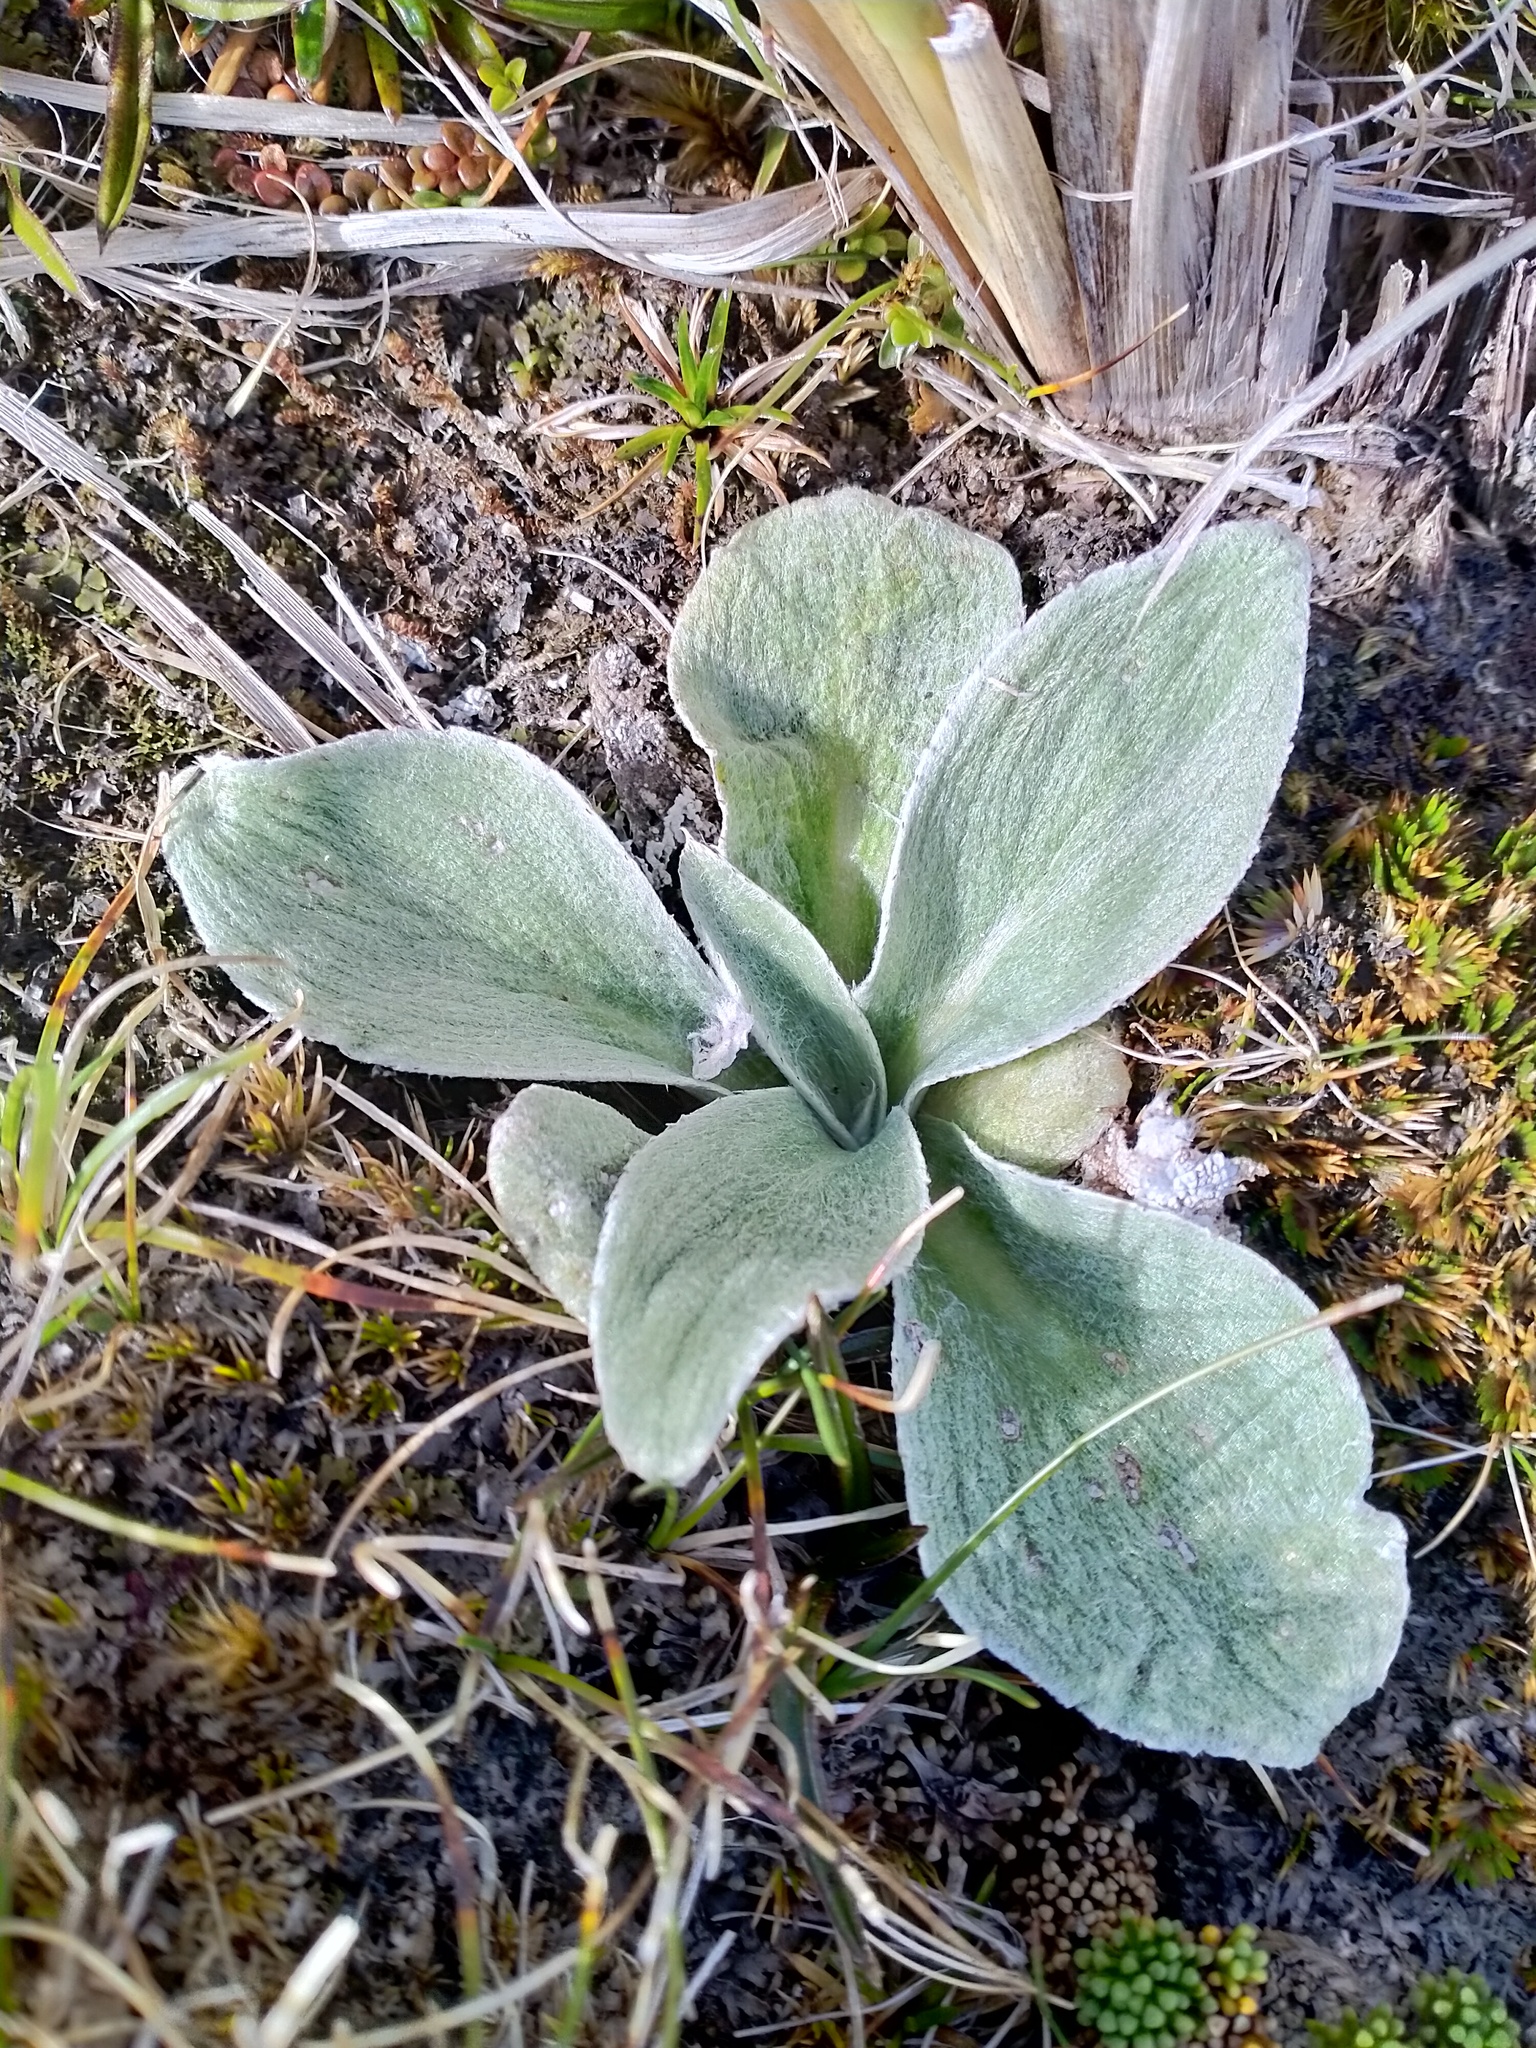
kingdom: Plantae
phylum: Tracheophyta
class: Magnoliopsida
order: Asterales
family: Asteraceae
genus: Pleurophyllum
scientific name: Pleurophyllum hookeri
